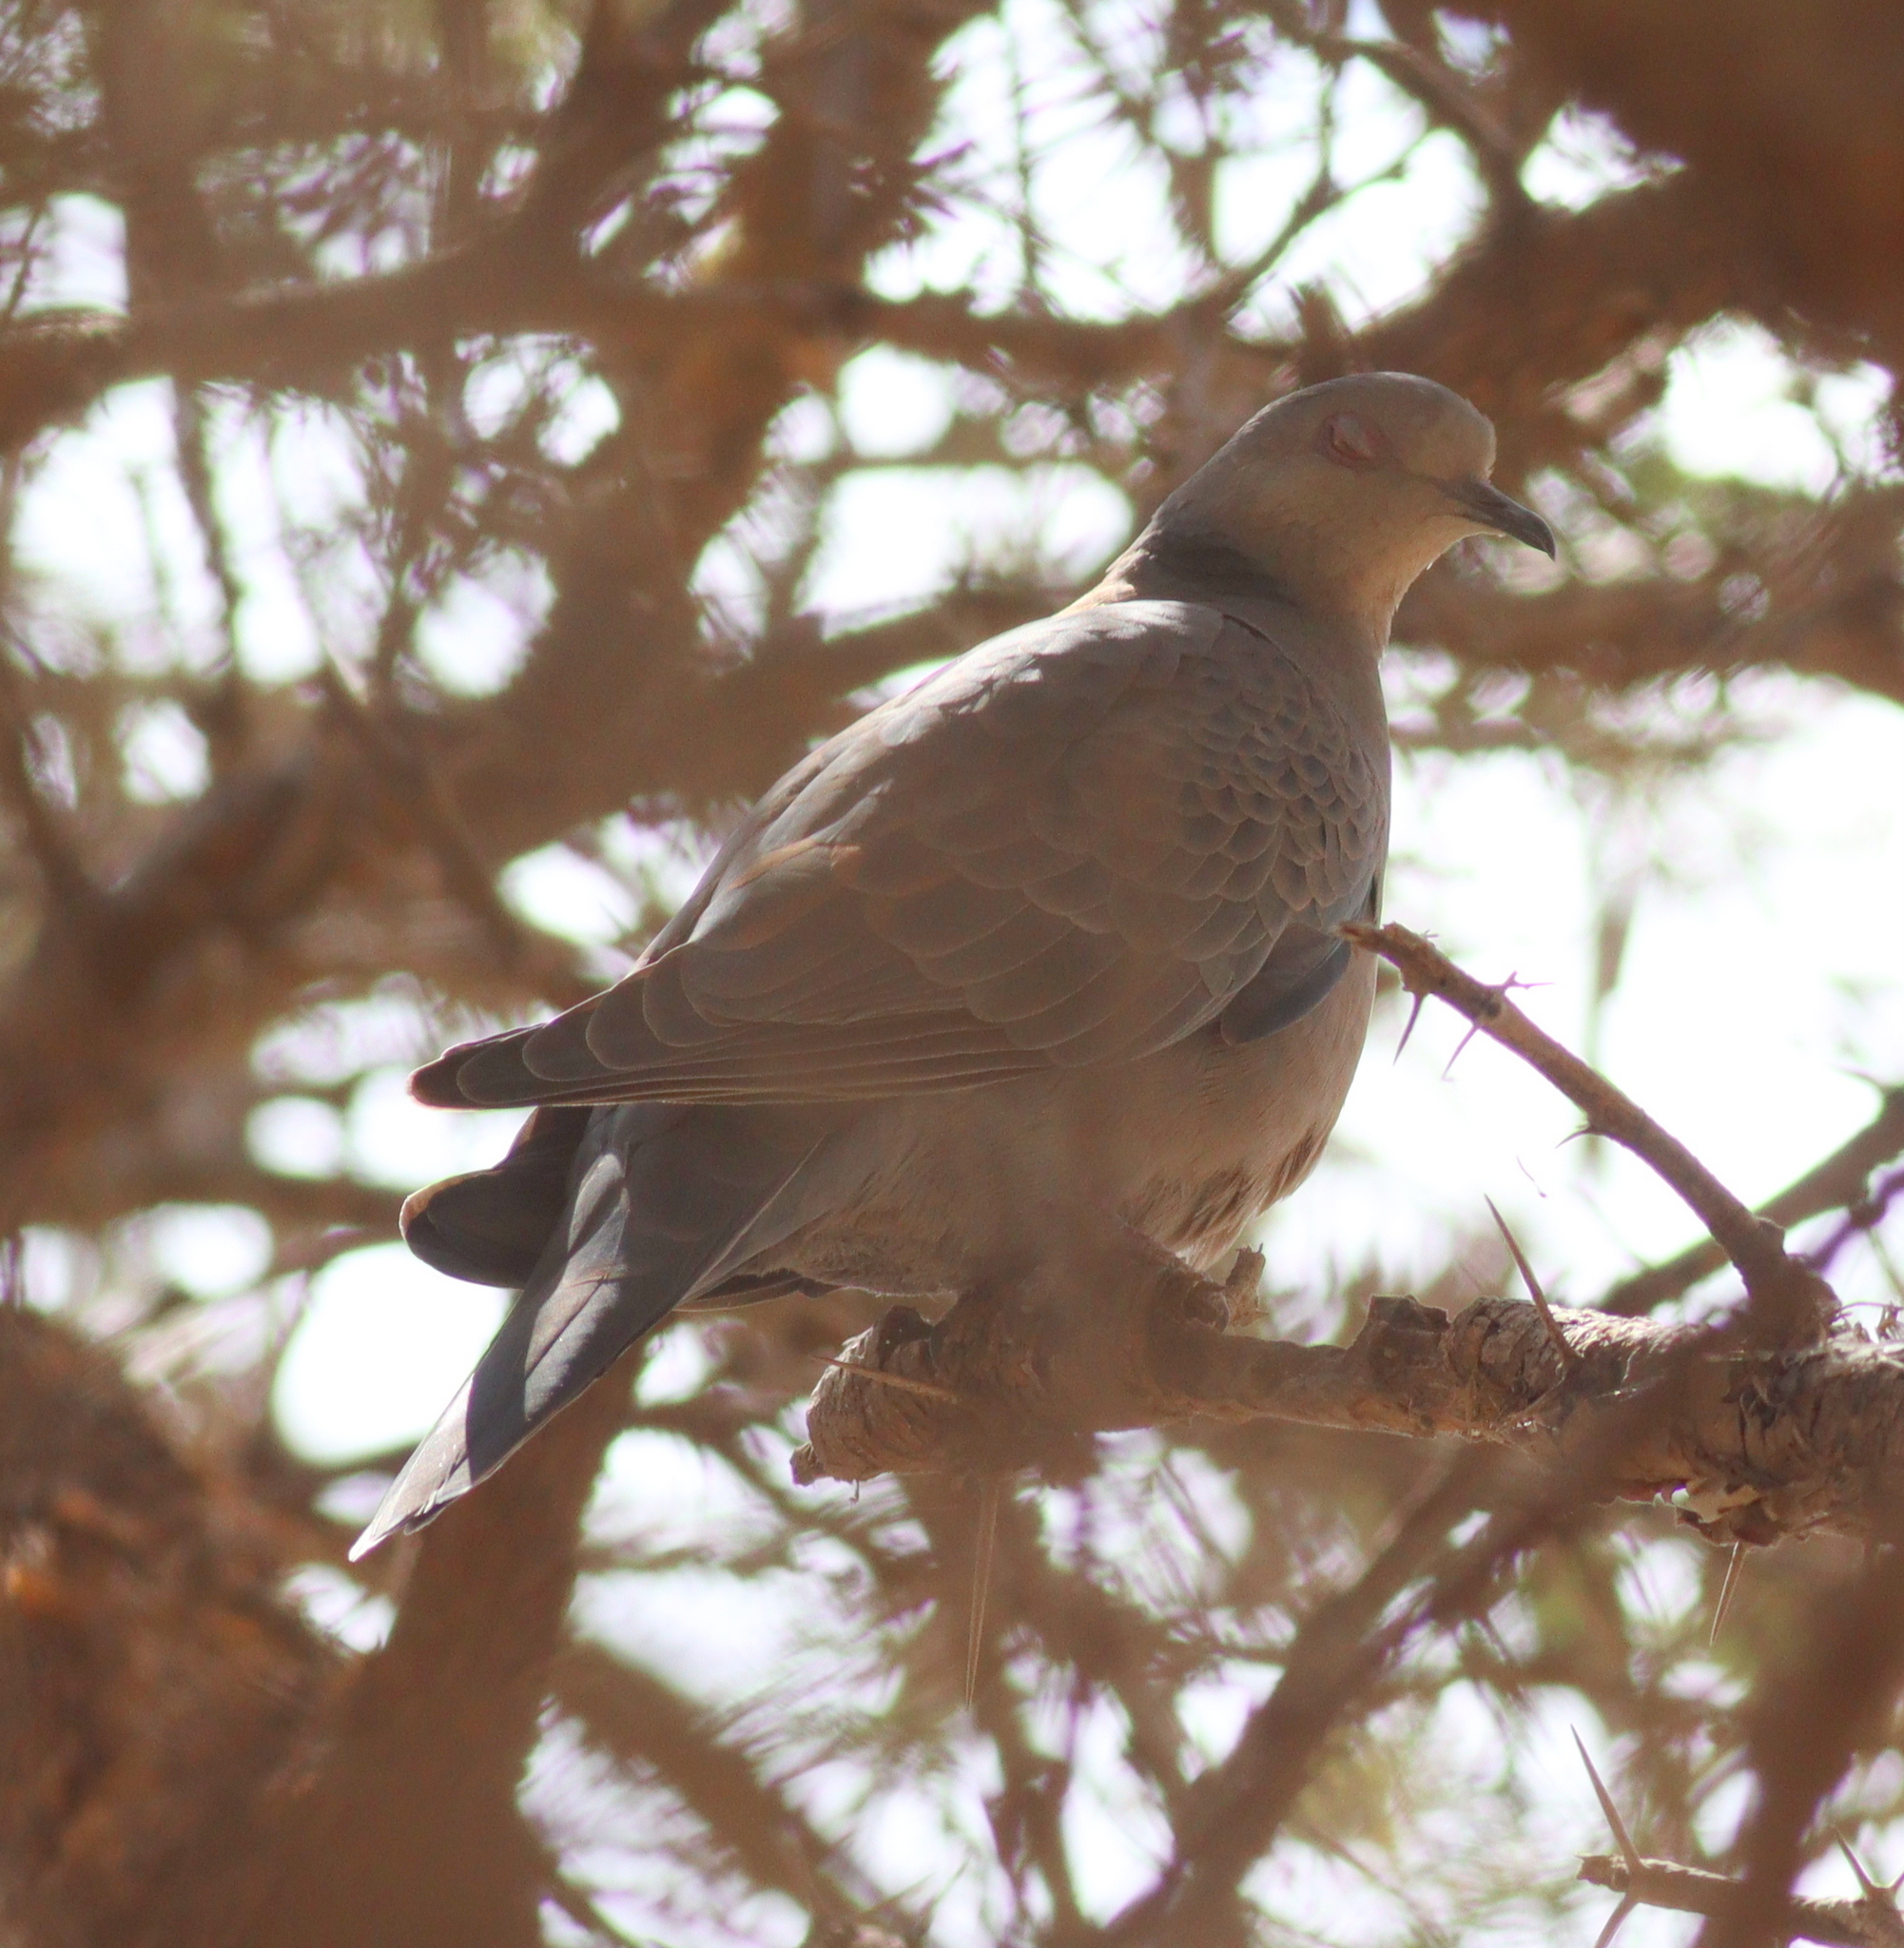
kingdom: Animalia
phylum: Chordata
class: Aves
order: Columbiformes
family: Columbidae
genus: Streptopelia
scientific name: Streptopelia lugens
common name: Dusky turtle dove
